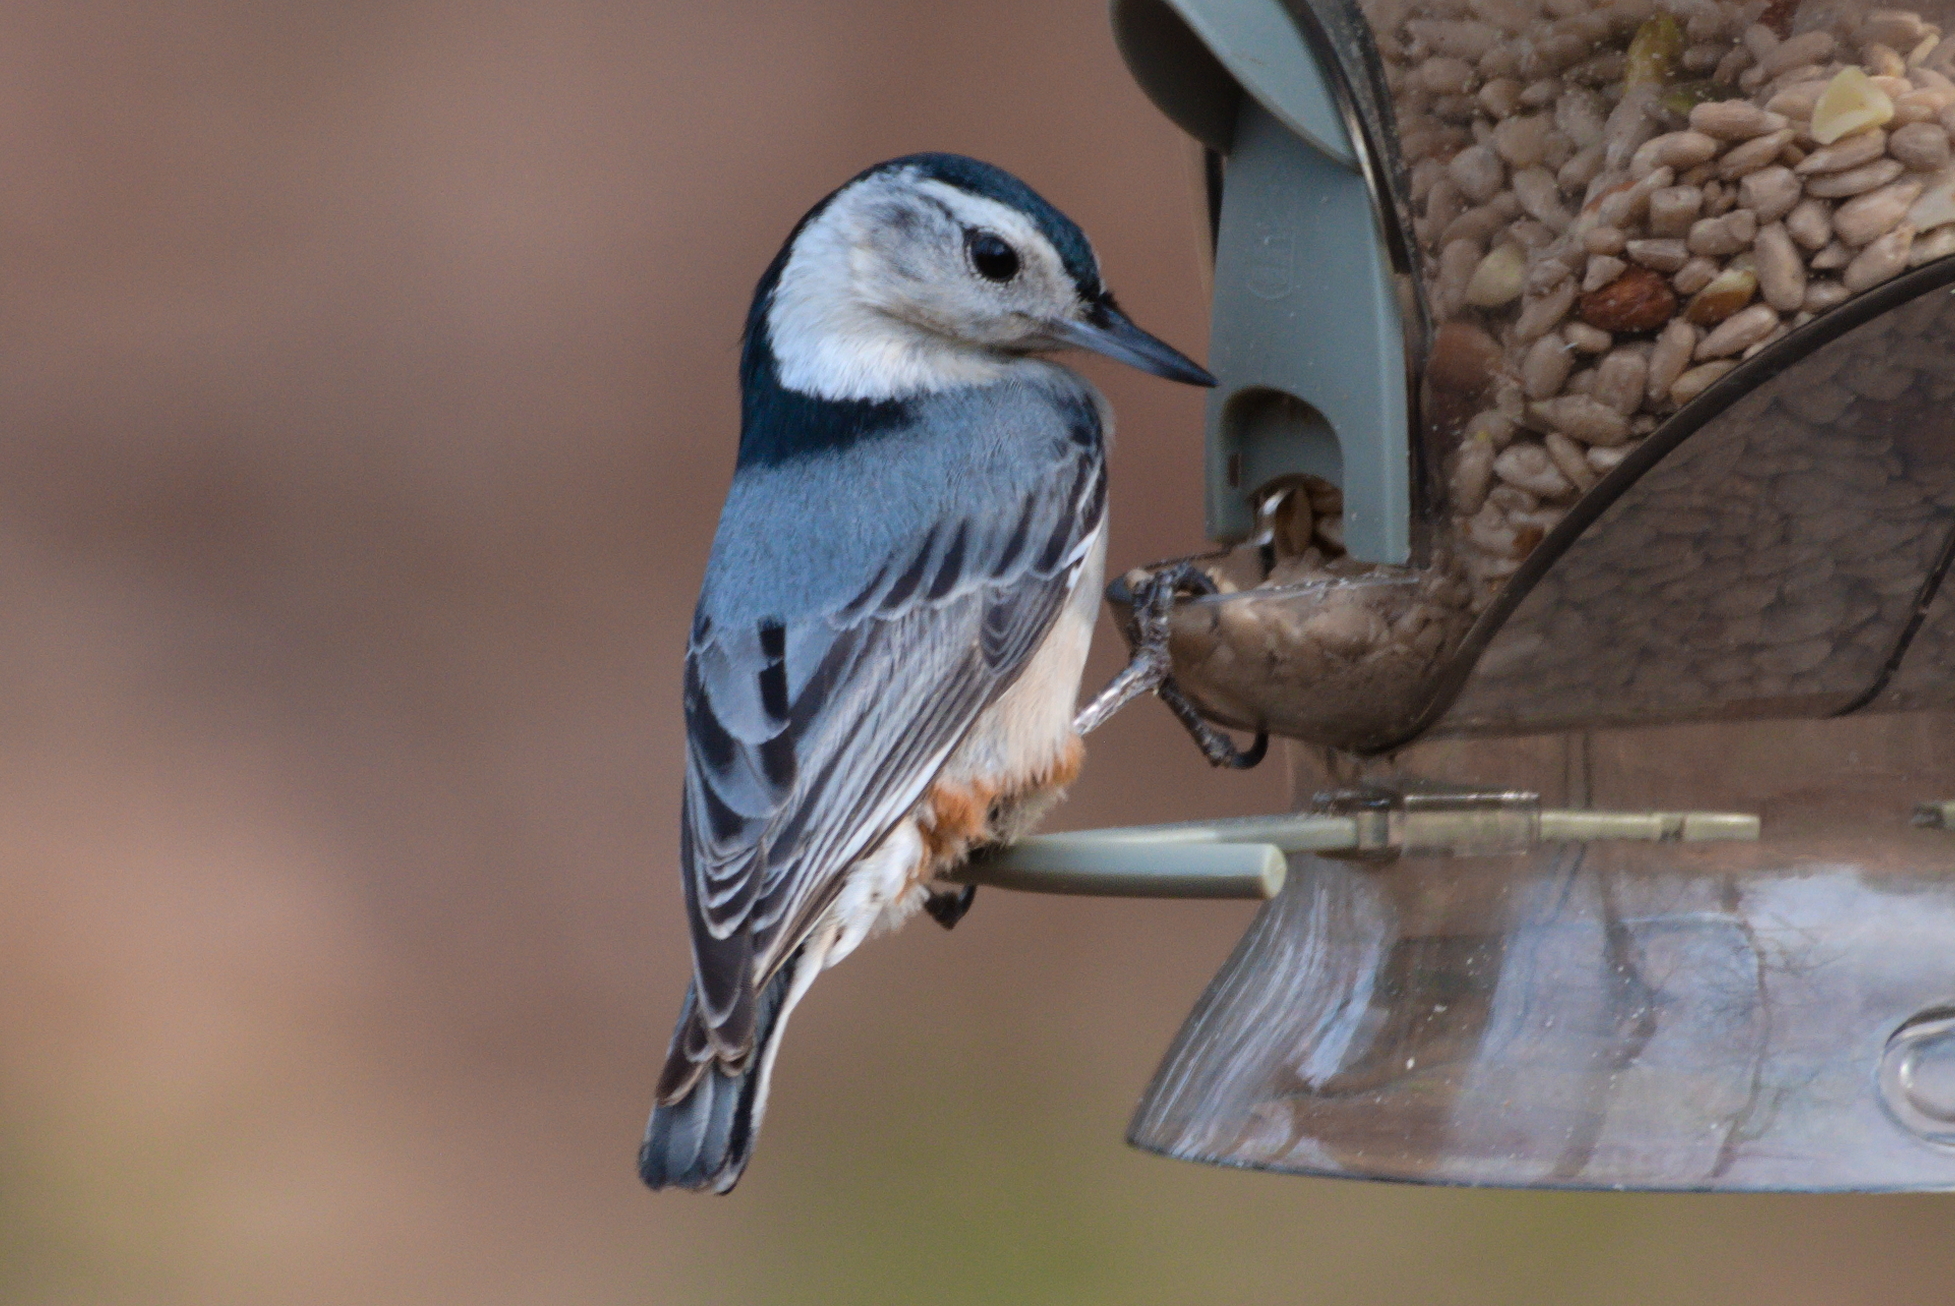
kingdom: Animalia
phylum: Chordata
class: Aves
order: Passeriformes
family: Sittidae
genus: Sitta
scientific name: Sitta carolinensis
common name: White-breasted nuthatch
